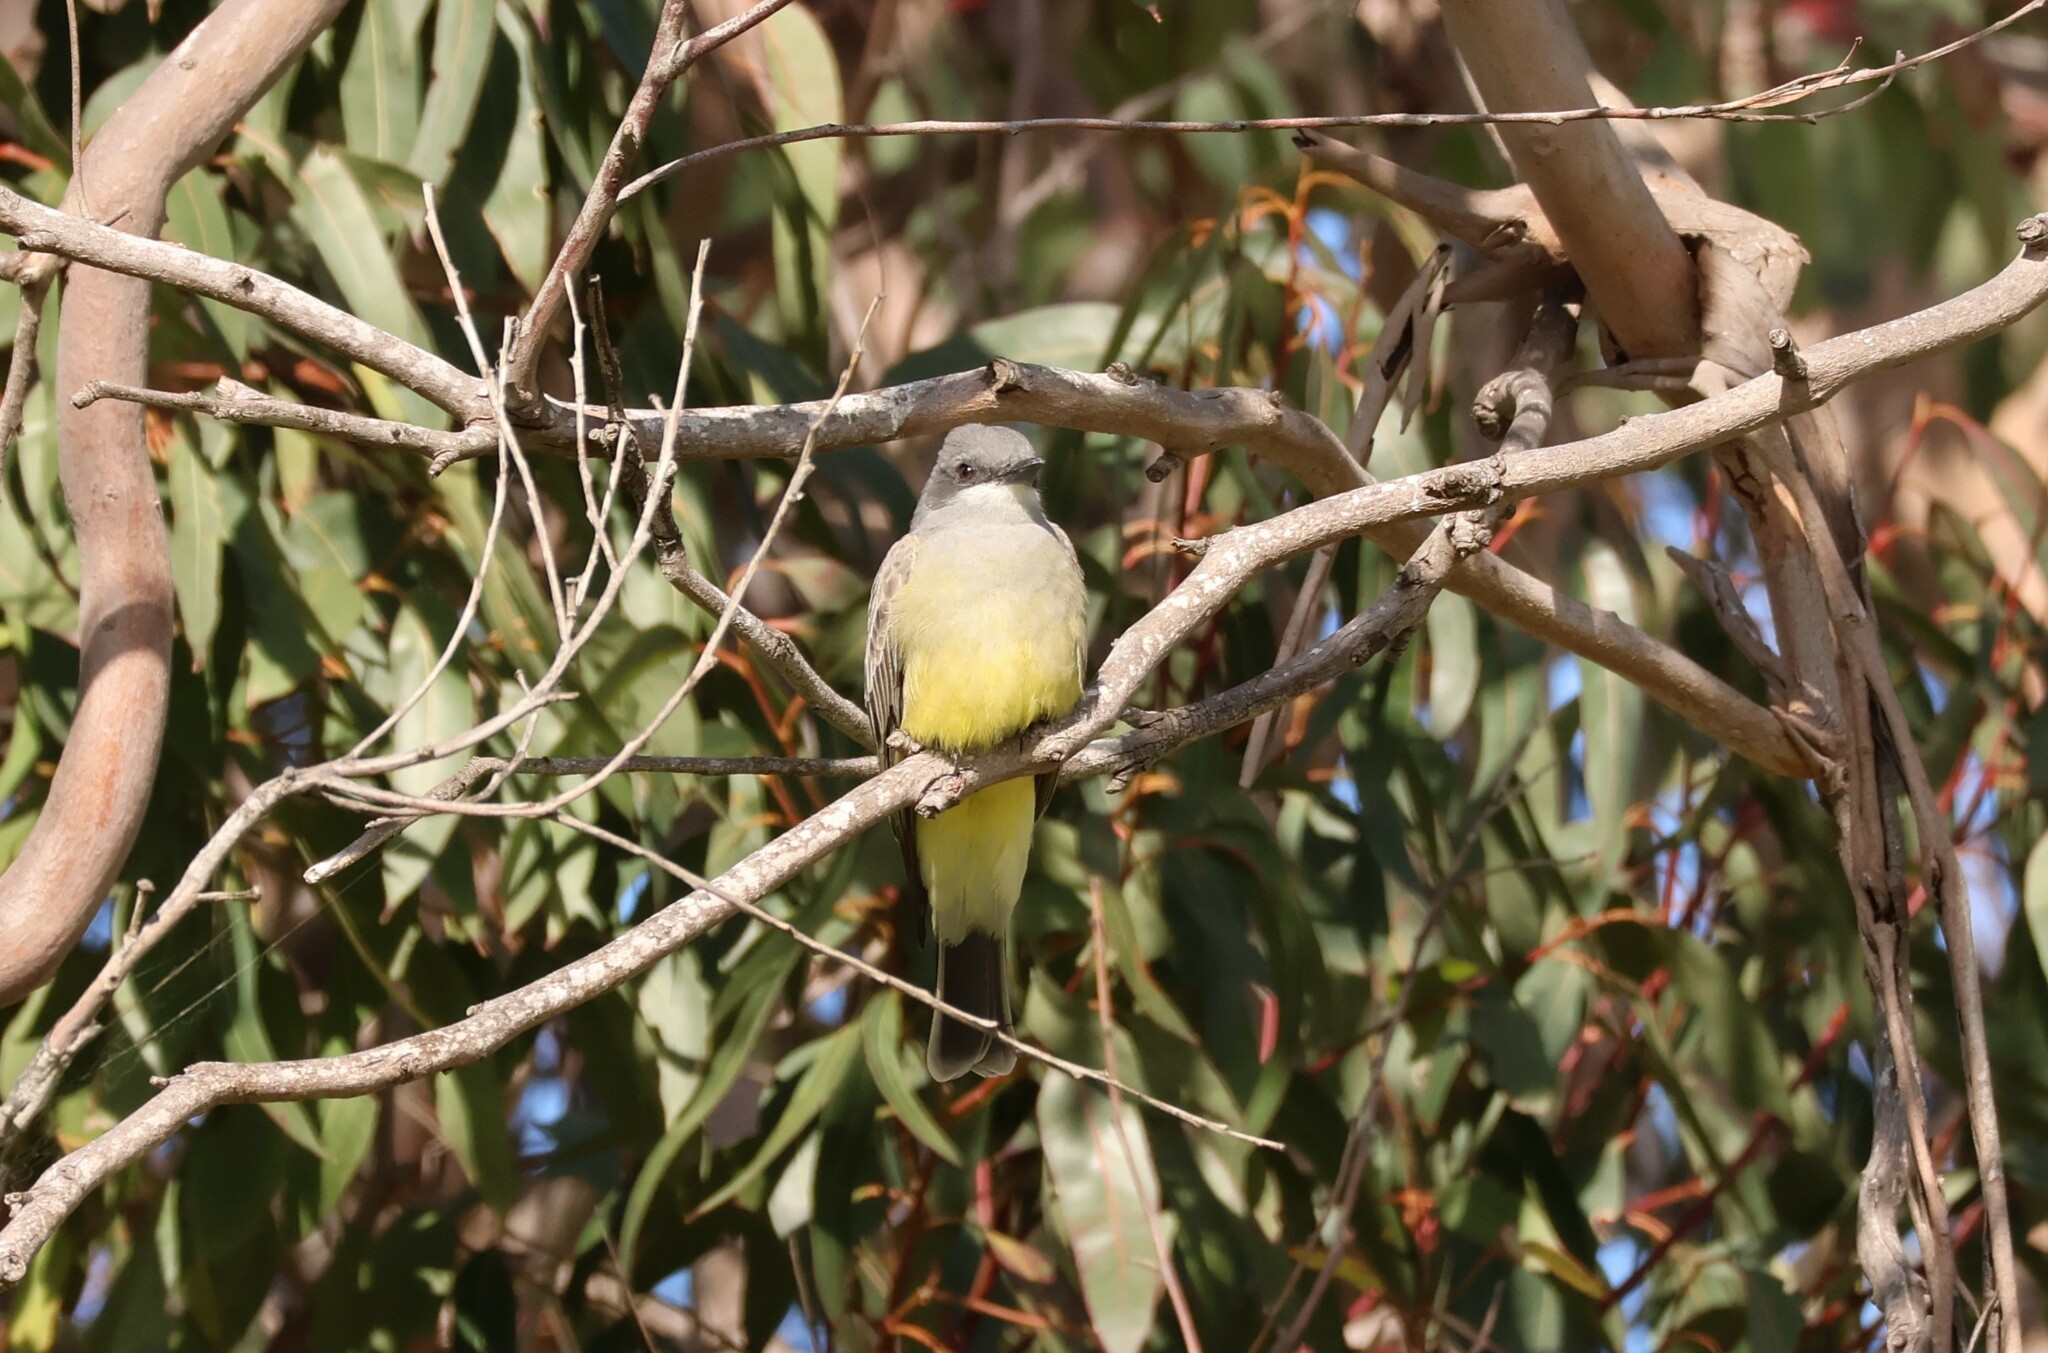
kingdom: Animalia
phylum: Chordata
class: Aves
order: Passeriformes
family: Tyrannidae
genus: Tyrannus
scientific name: Tyrannus vociferans
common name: Cassin's kingbird
